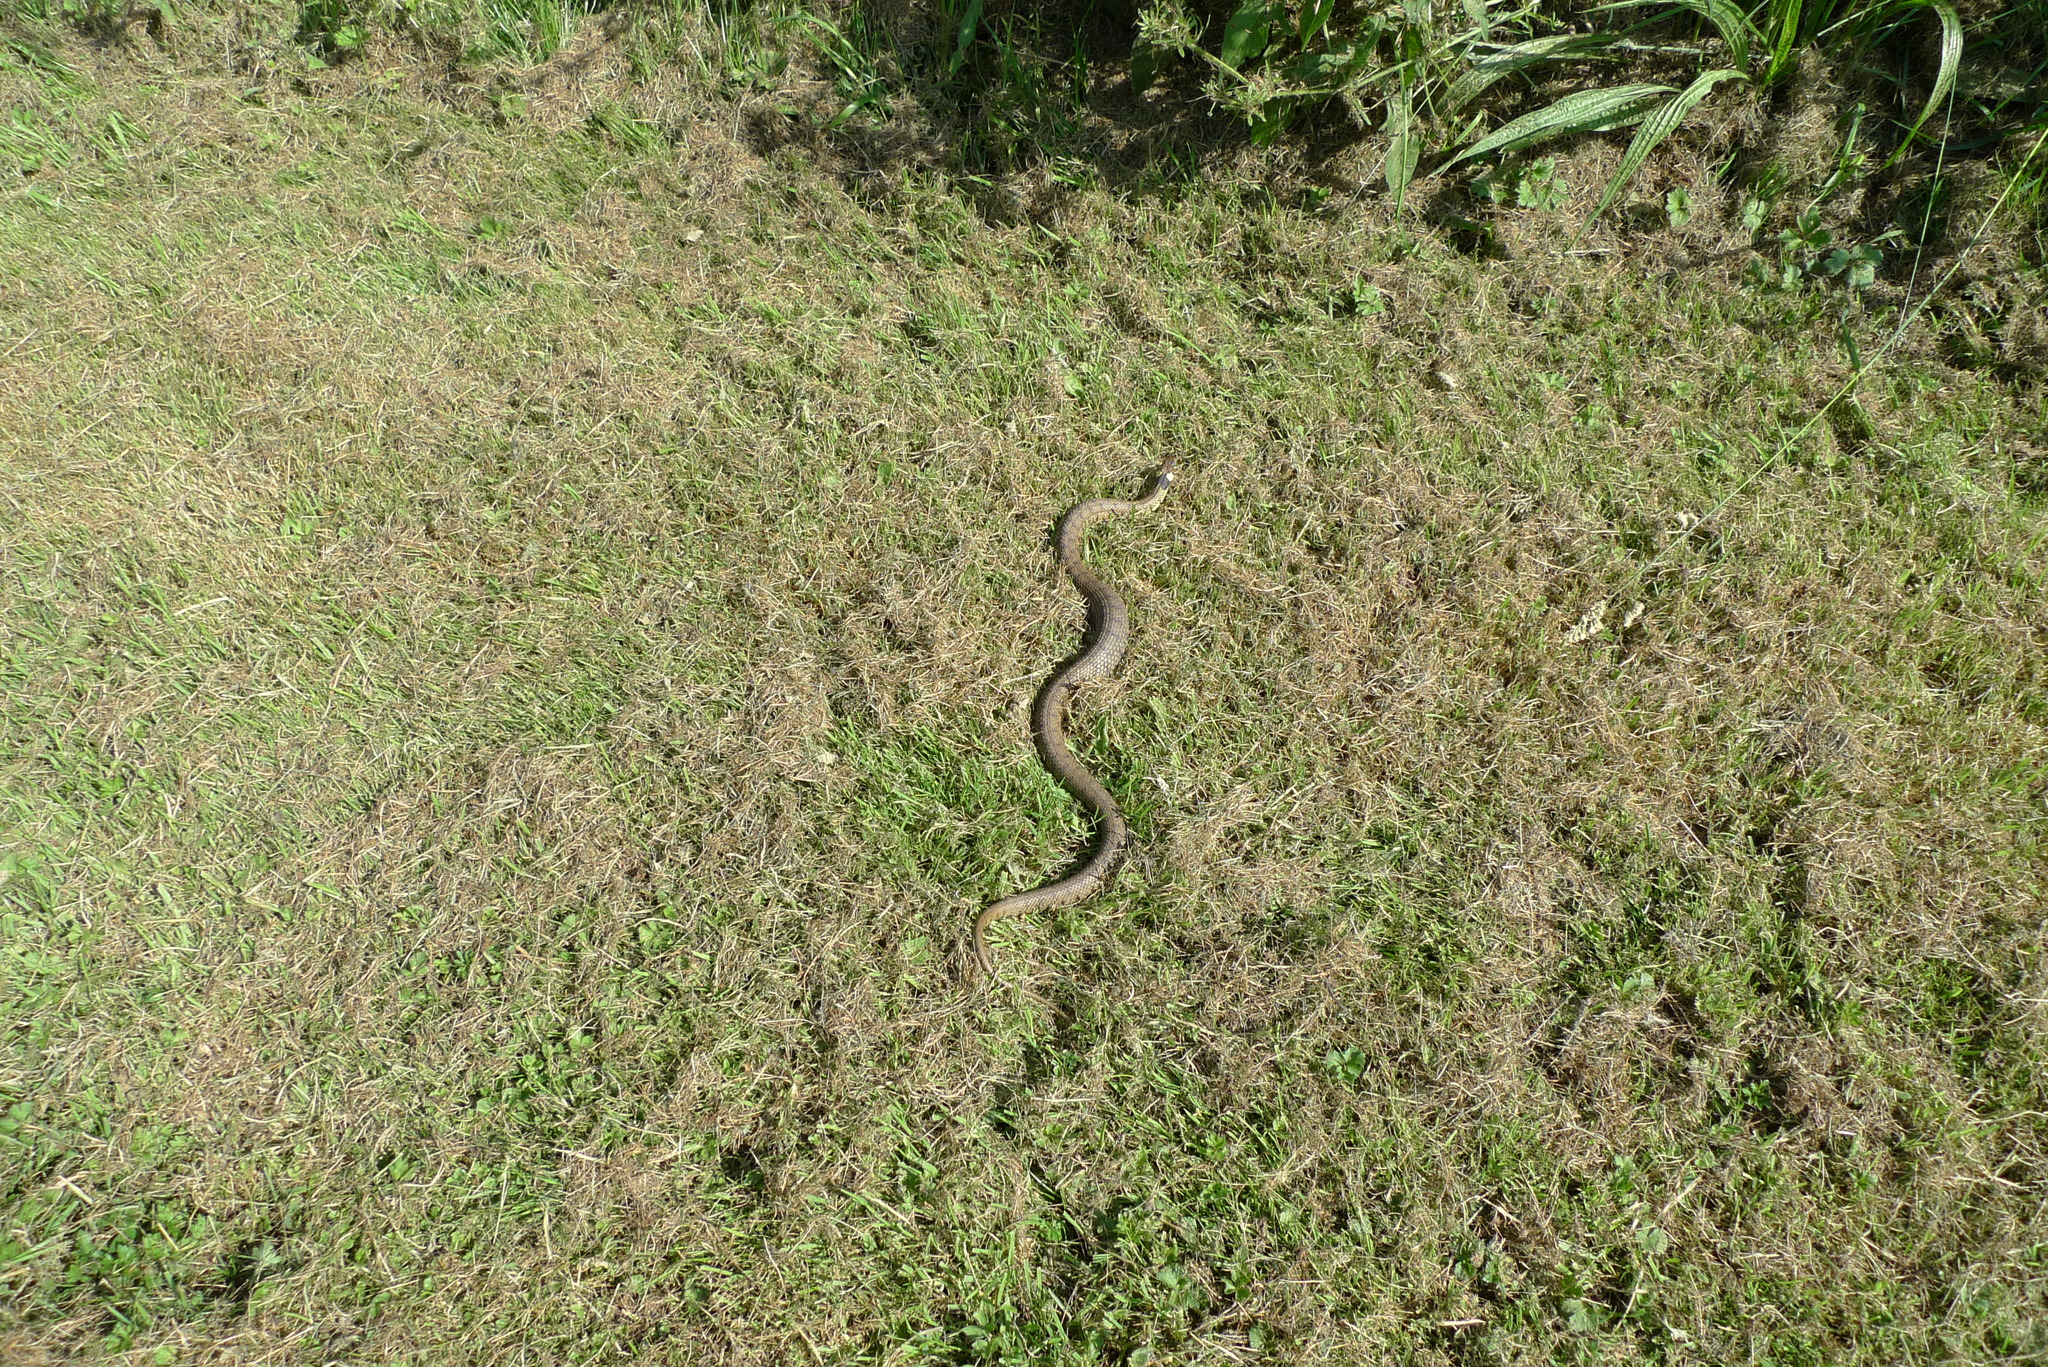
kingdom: Animalia
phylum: Chordata
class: Squamata
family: Colubridae
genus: Natrix
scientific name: Natrix helvetica
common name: Banded grass snake
